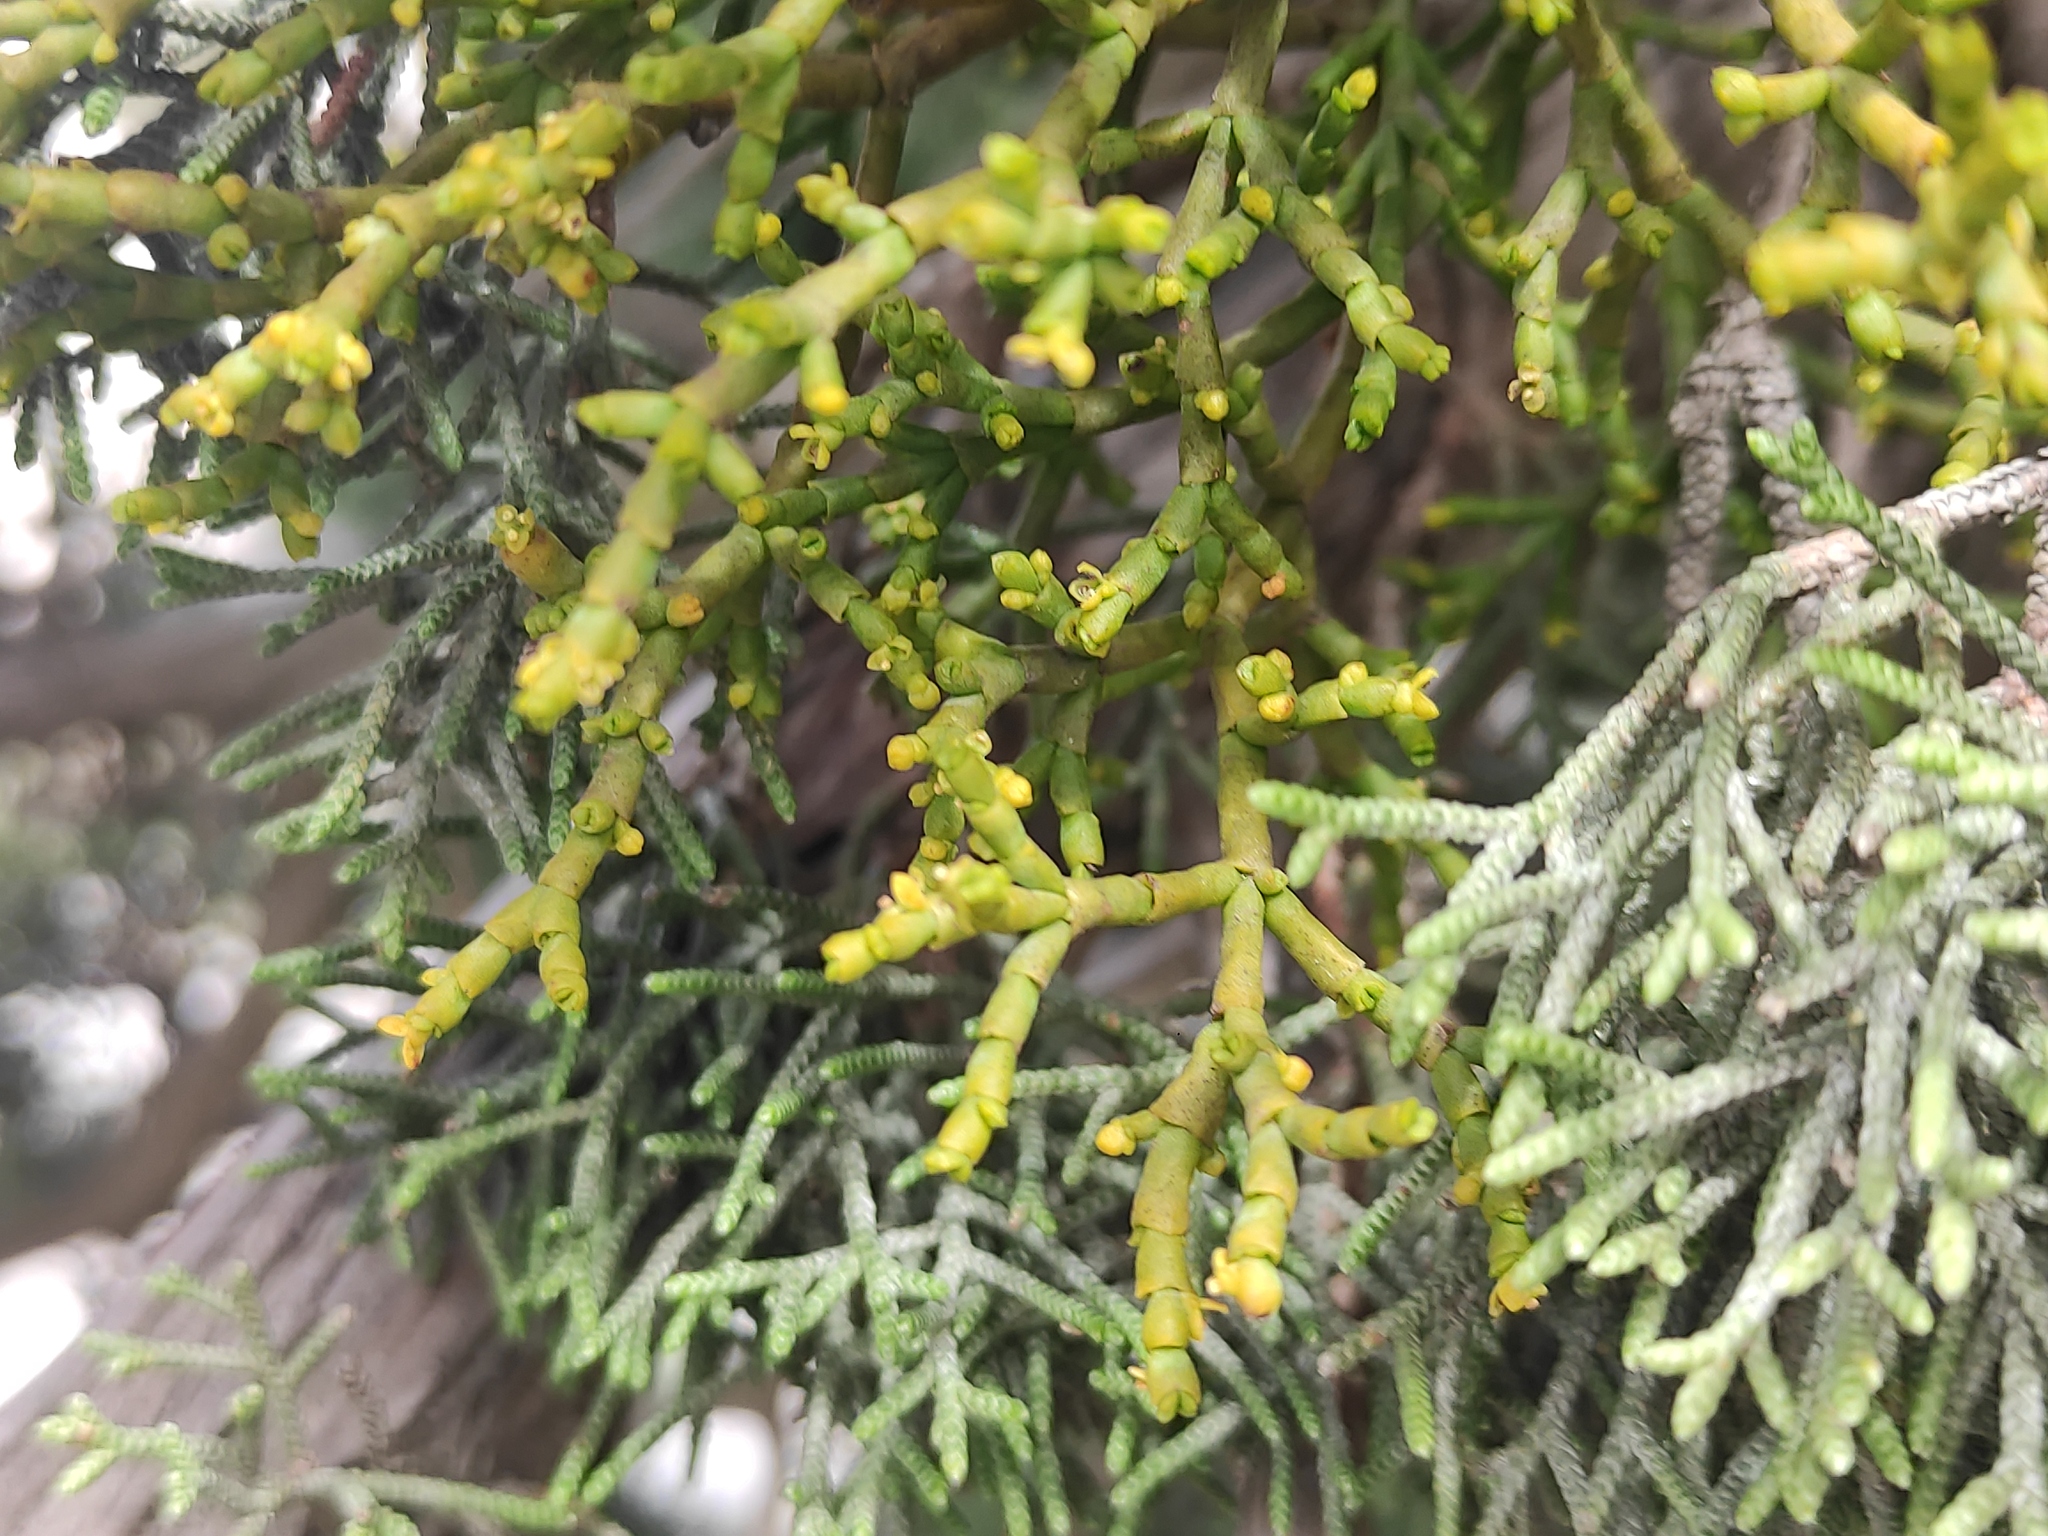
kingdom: Plantae
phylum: Tracheophyta
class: Magnoliopsida
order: Santalales
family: Viscaceae
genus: Arceuthobium
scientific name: Arceuthobium gambyi
